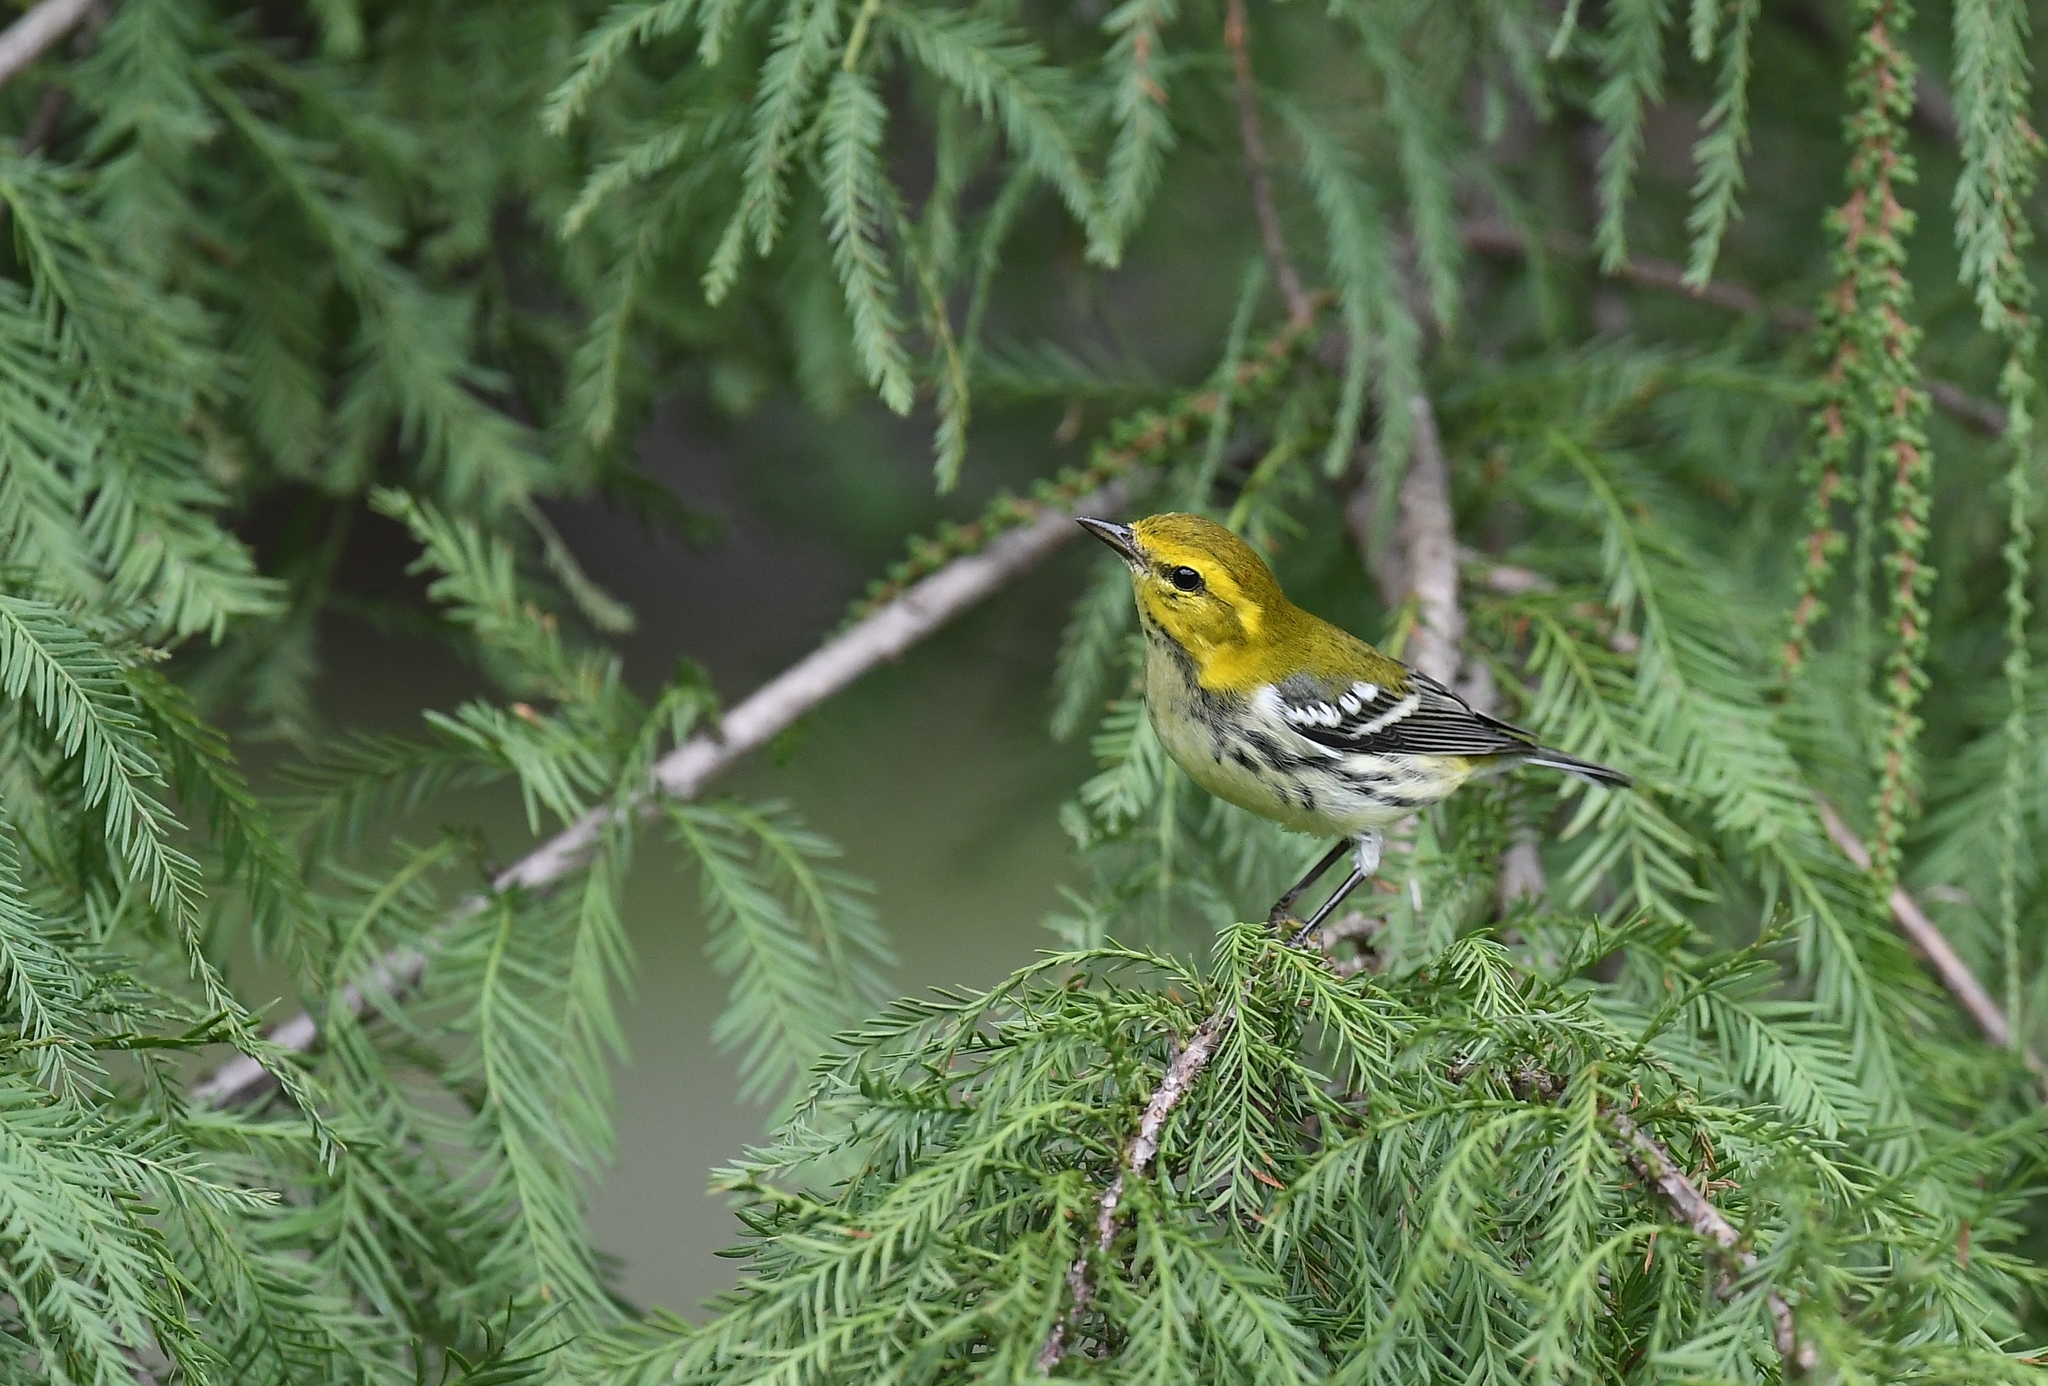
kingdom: Animalia
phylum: Chordata
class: Aves
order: Passeriformes
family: Parulidae
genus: Setophaga
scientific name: Setophaga virens
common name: Black-throated green warbler
